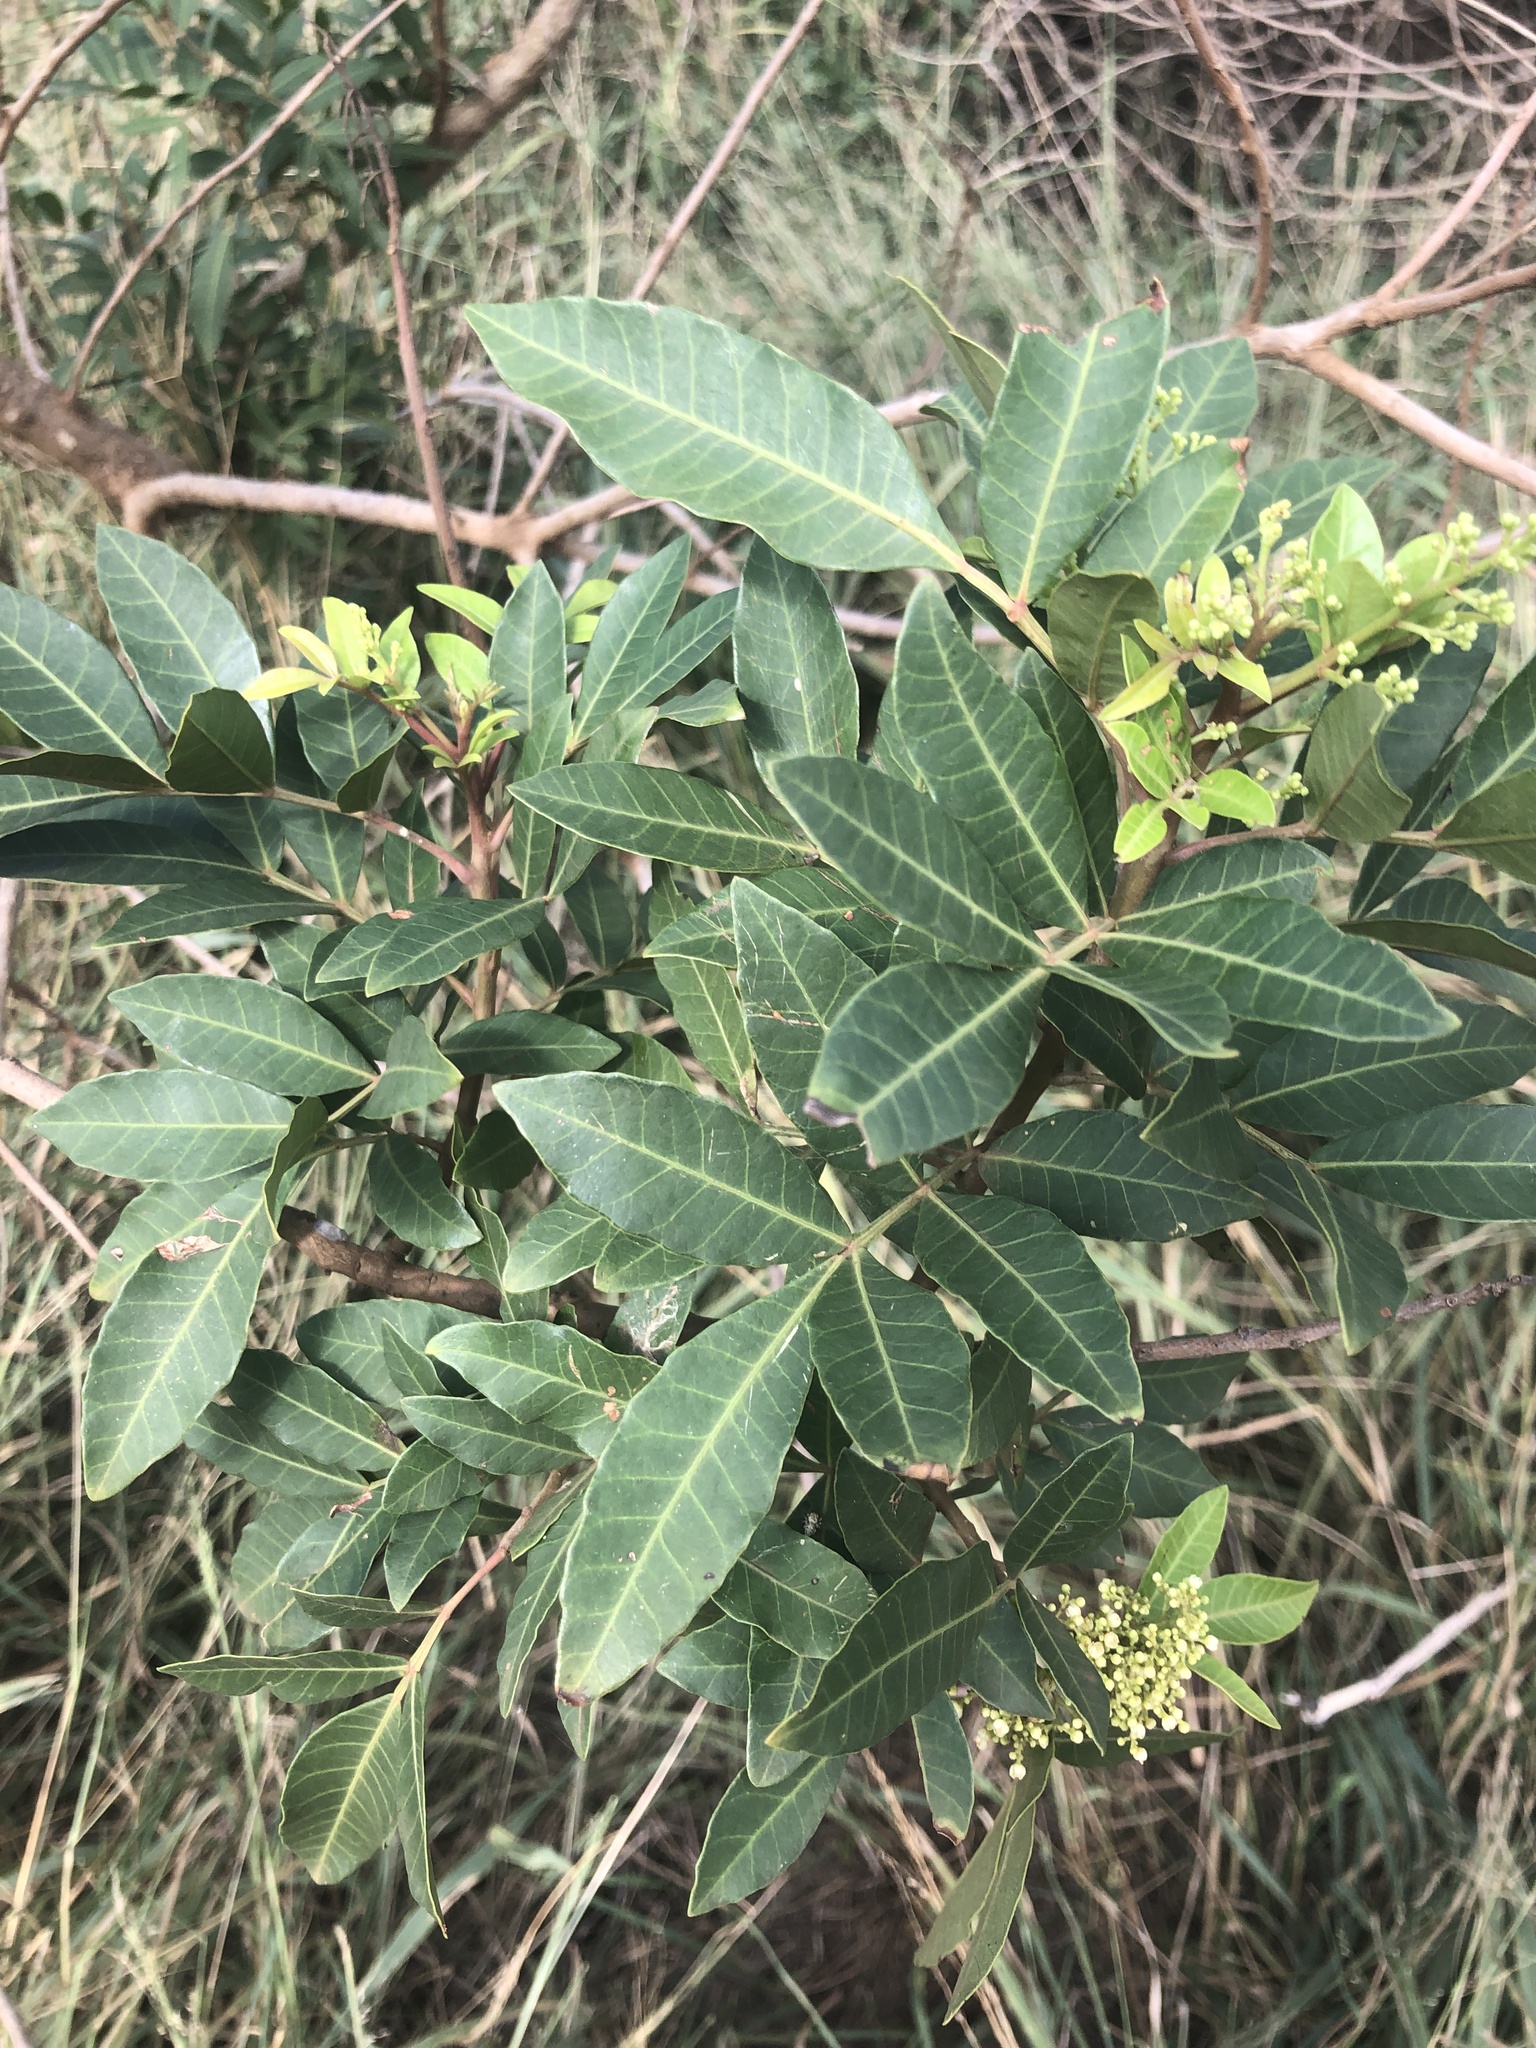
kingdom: Plantae
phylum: Tracheophyta
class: Magnoliopsida
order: Sapindales
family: Anacardiaceae
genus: Schinus
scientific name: Schinus terebinthifolia
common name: Brazilian peppertree
